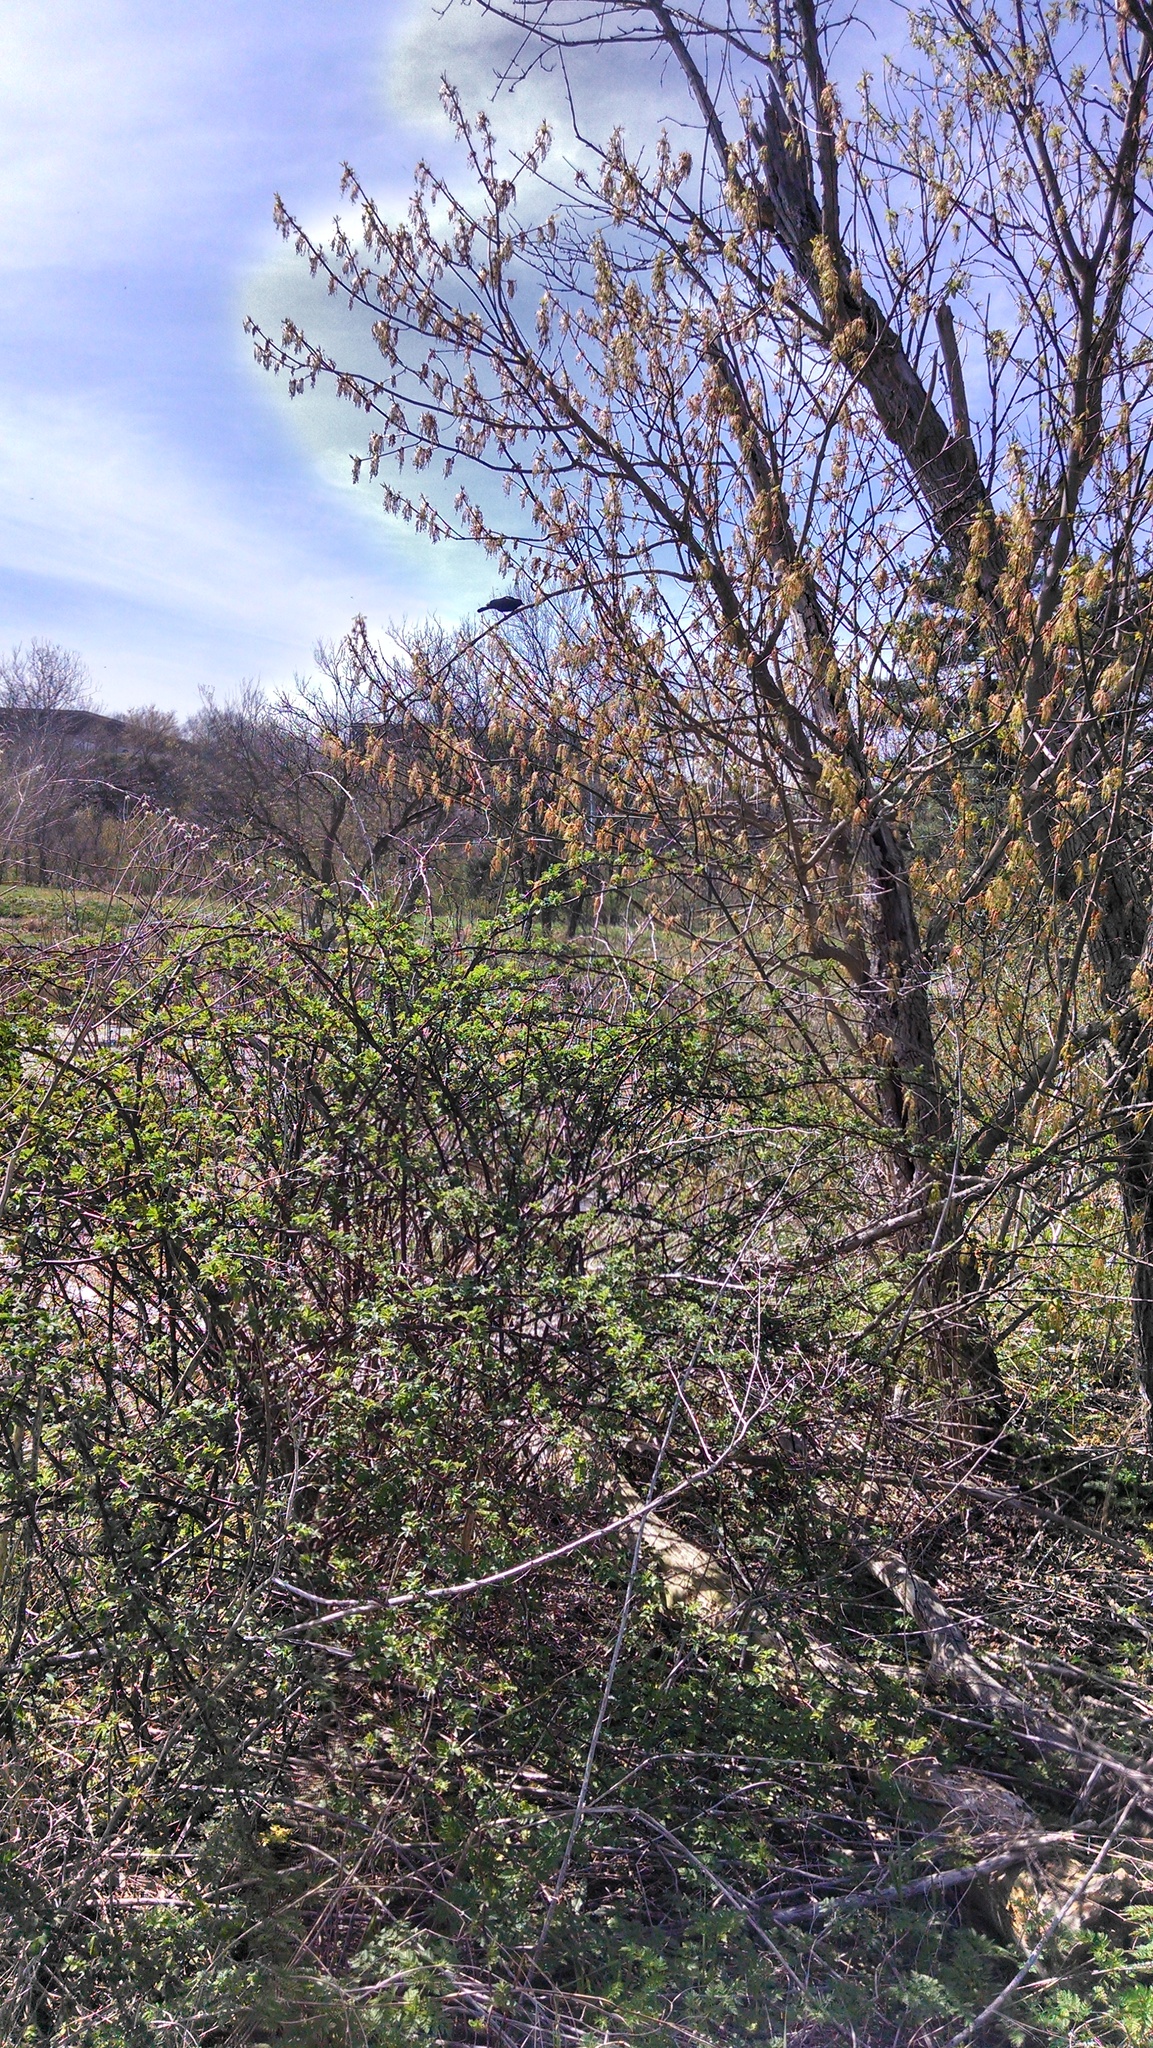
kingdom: Animalia
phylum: Chordata
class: Aves
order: Passeriformes
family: Icteridae
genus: Agelaius
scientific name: Agelaius phoeniceus
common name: Red-winged blackbird
